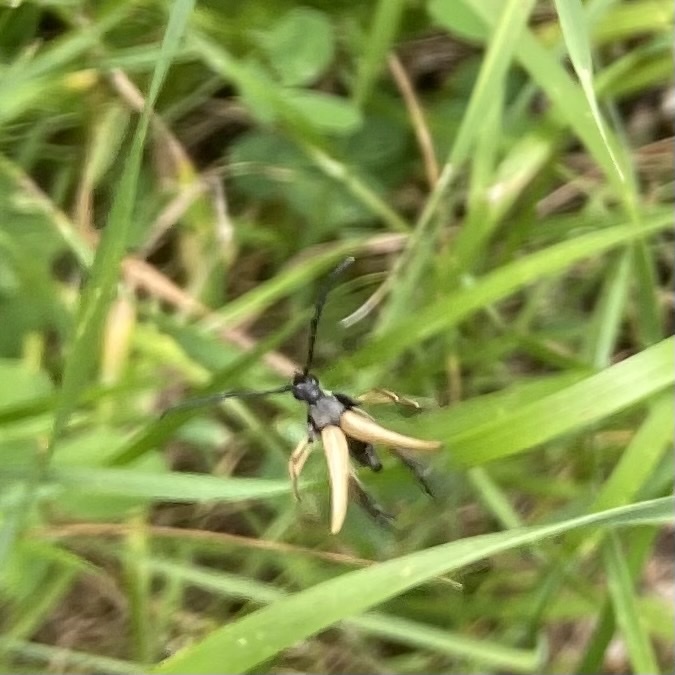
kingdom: Animalia
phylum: Arthropoda
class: Insecta
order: Coleoptera
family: Cerambycidae
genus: Stictoleptura
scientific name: Stictoleptura rubra
